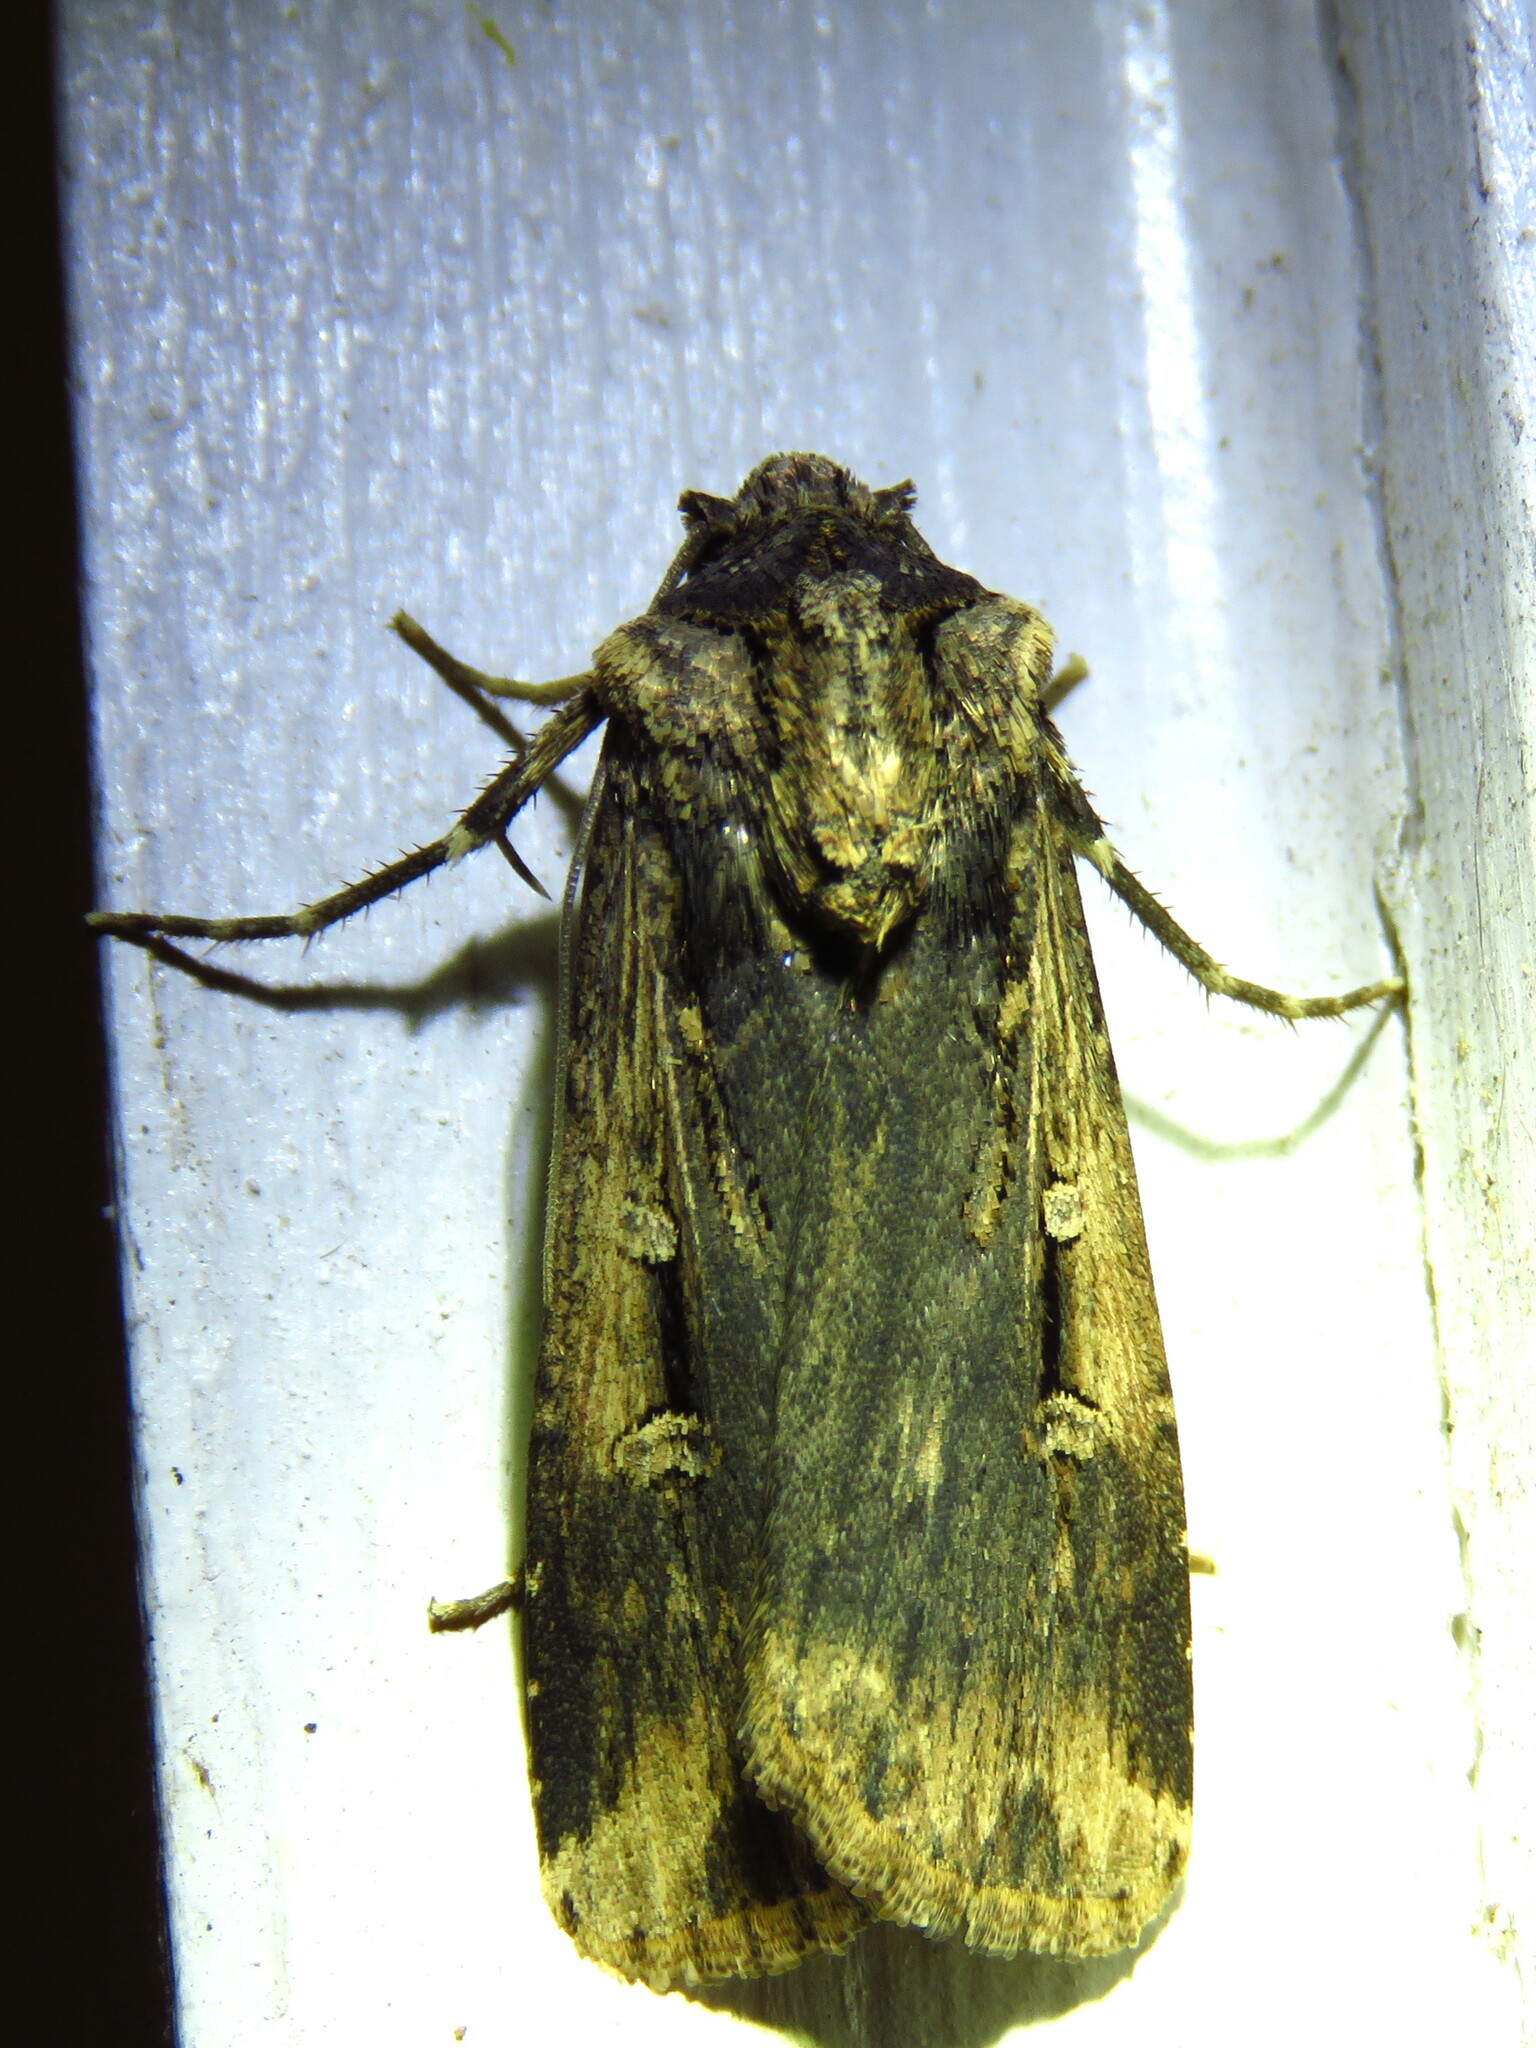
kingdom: Animalia
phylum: Arthropoda
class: Insecta
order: Lepidoptera
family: Noctuidae
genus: Feltia
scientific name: Feltia subterranea
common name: Granulate cutworm
